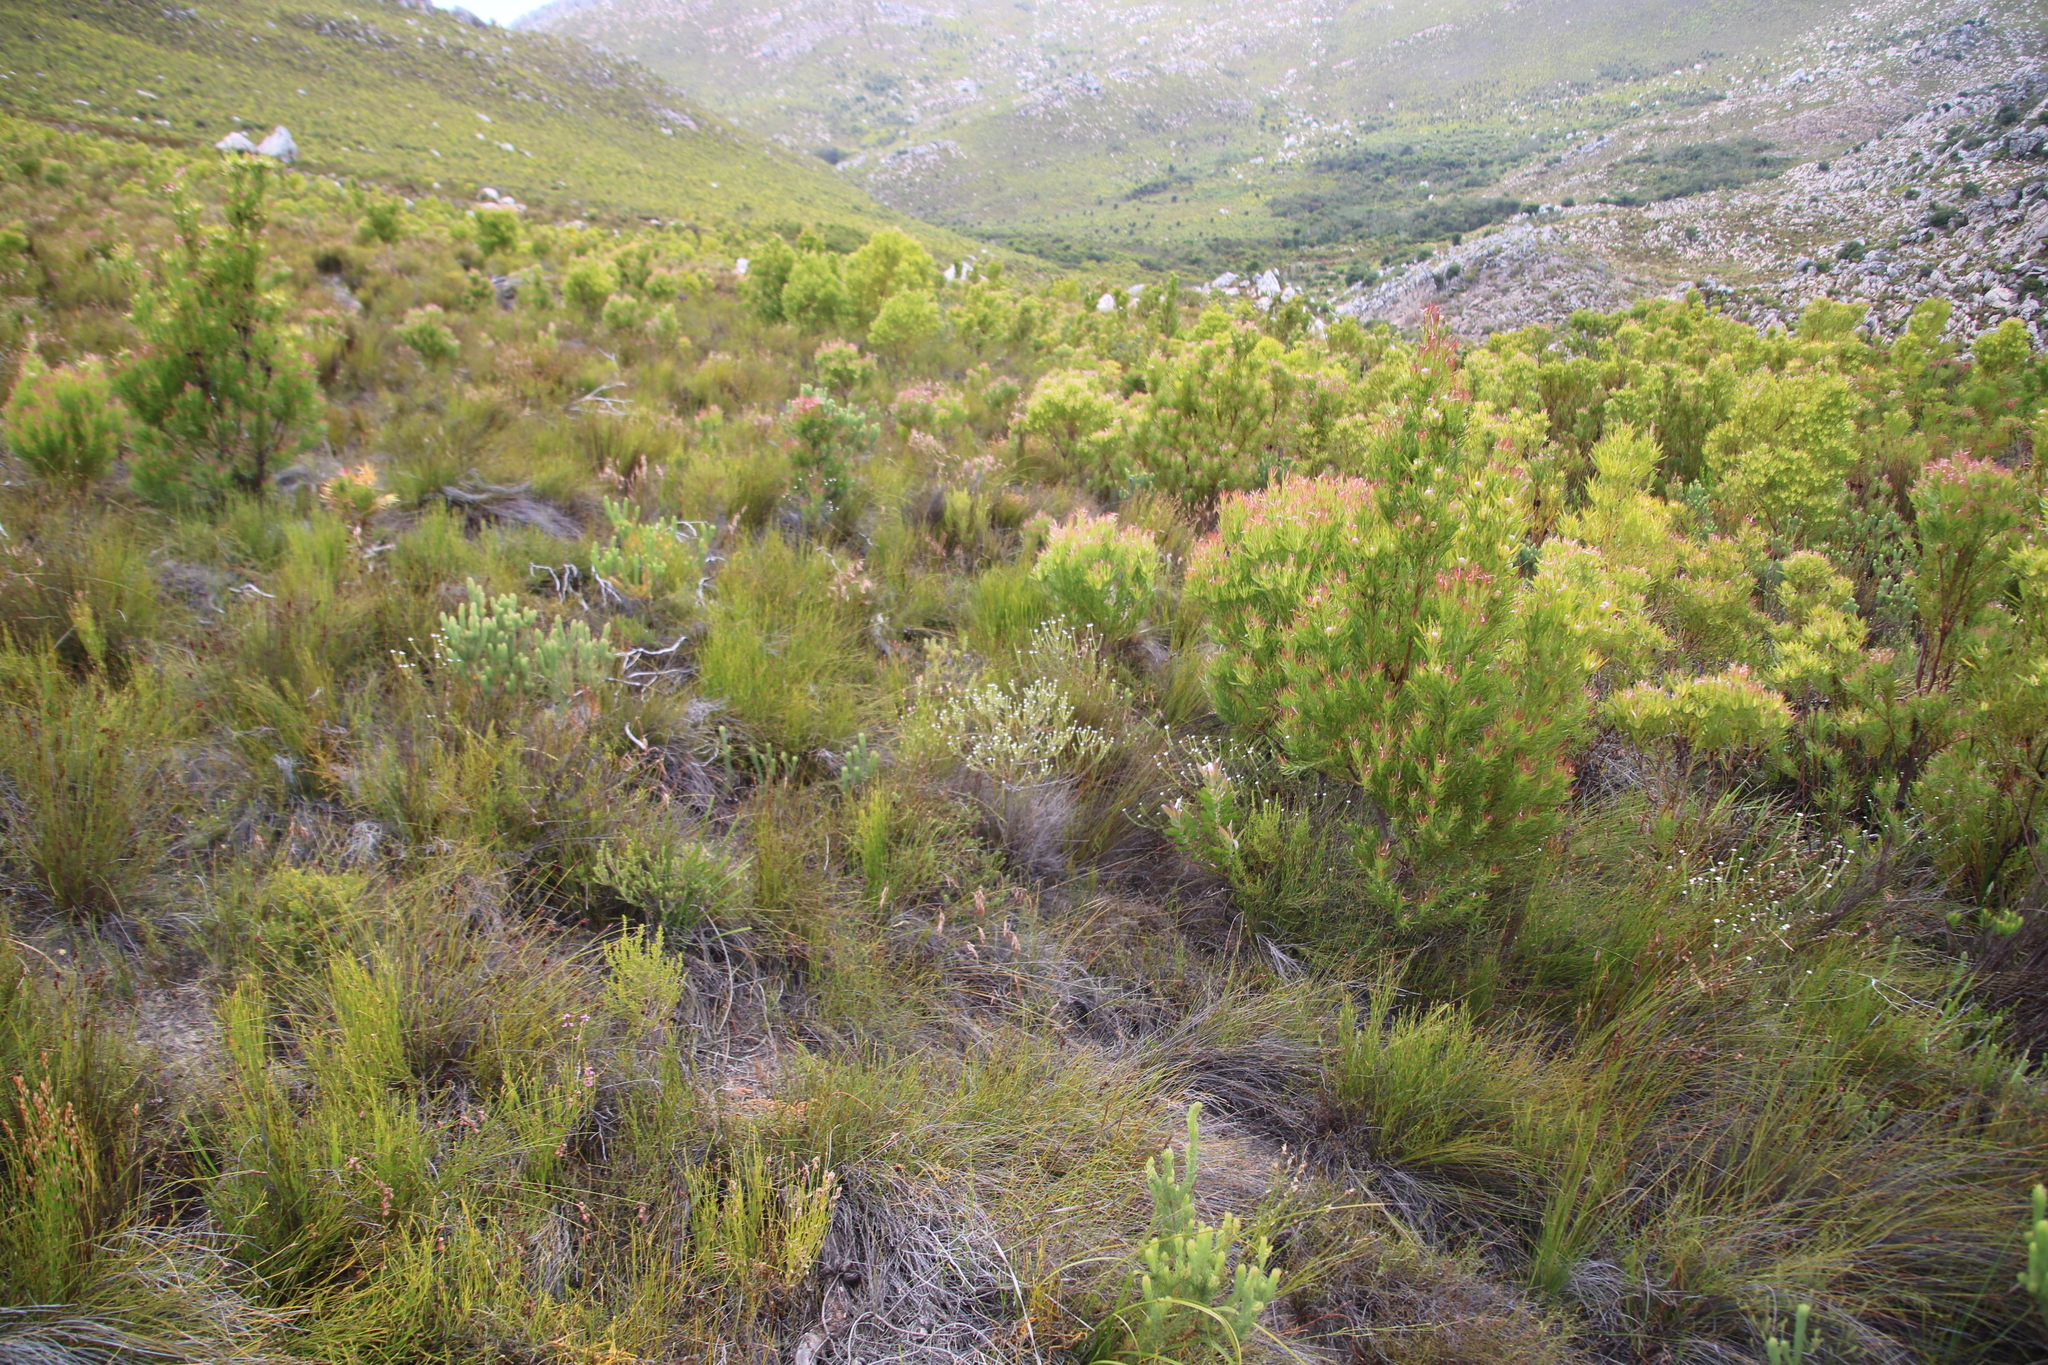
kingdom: Plantae
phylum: Tracheophyta
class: Magnoliopsida
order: Proteales
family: Proteaceae
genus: Leucadendron
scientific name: Leucadendron xanthoconus
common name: Sickle-leaf conebush
